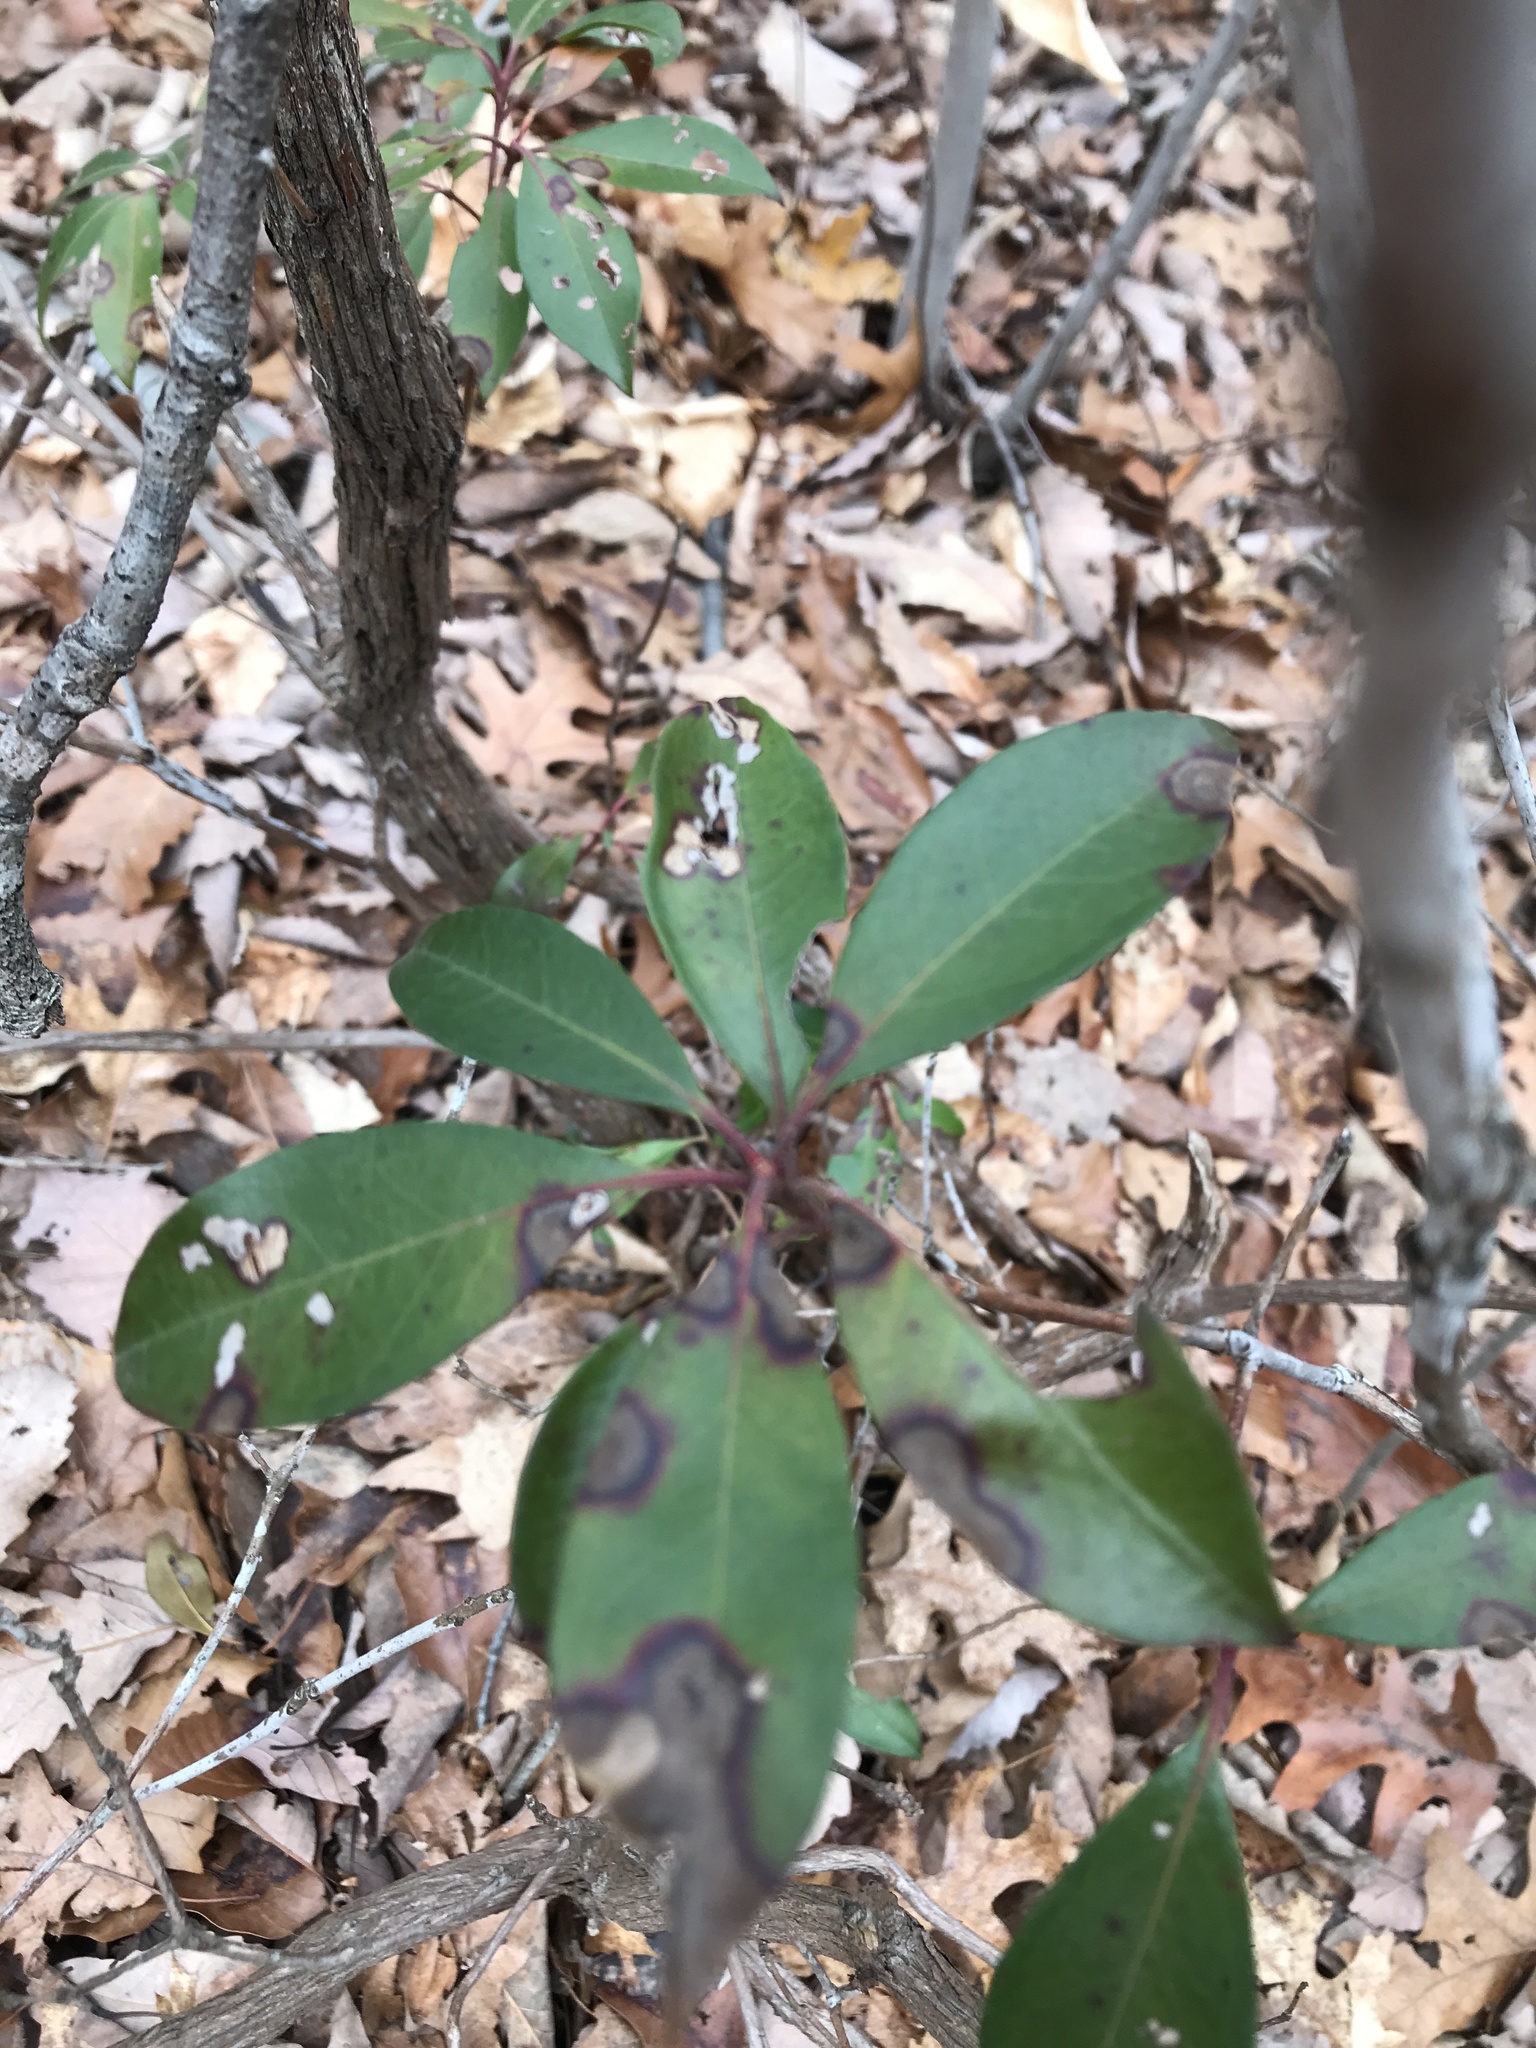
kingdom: Plantae
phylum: Tracheophyta
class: Magnoliopsida
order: Ericales
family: Ericaceae
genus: Kalmia
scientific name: Kalmia latifolia
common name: Mountain-laurel
